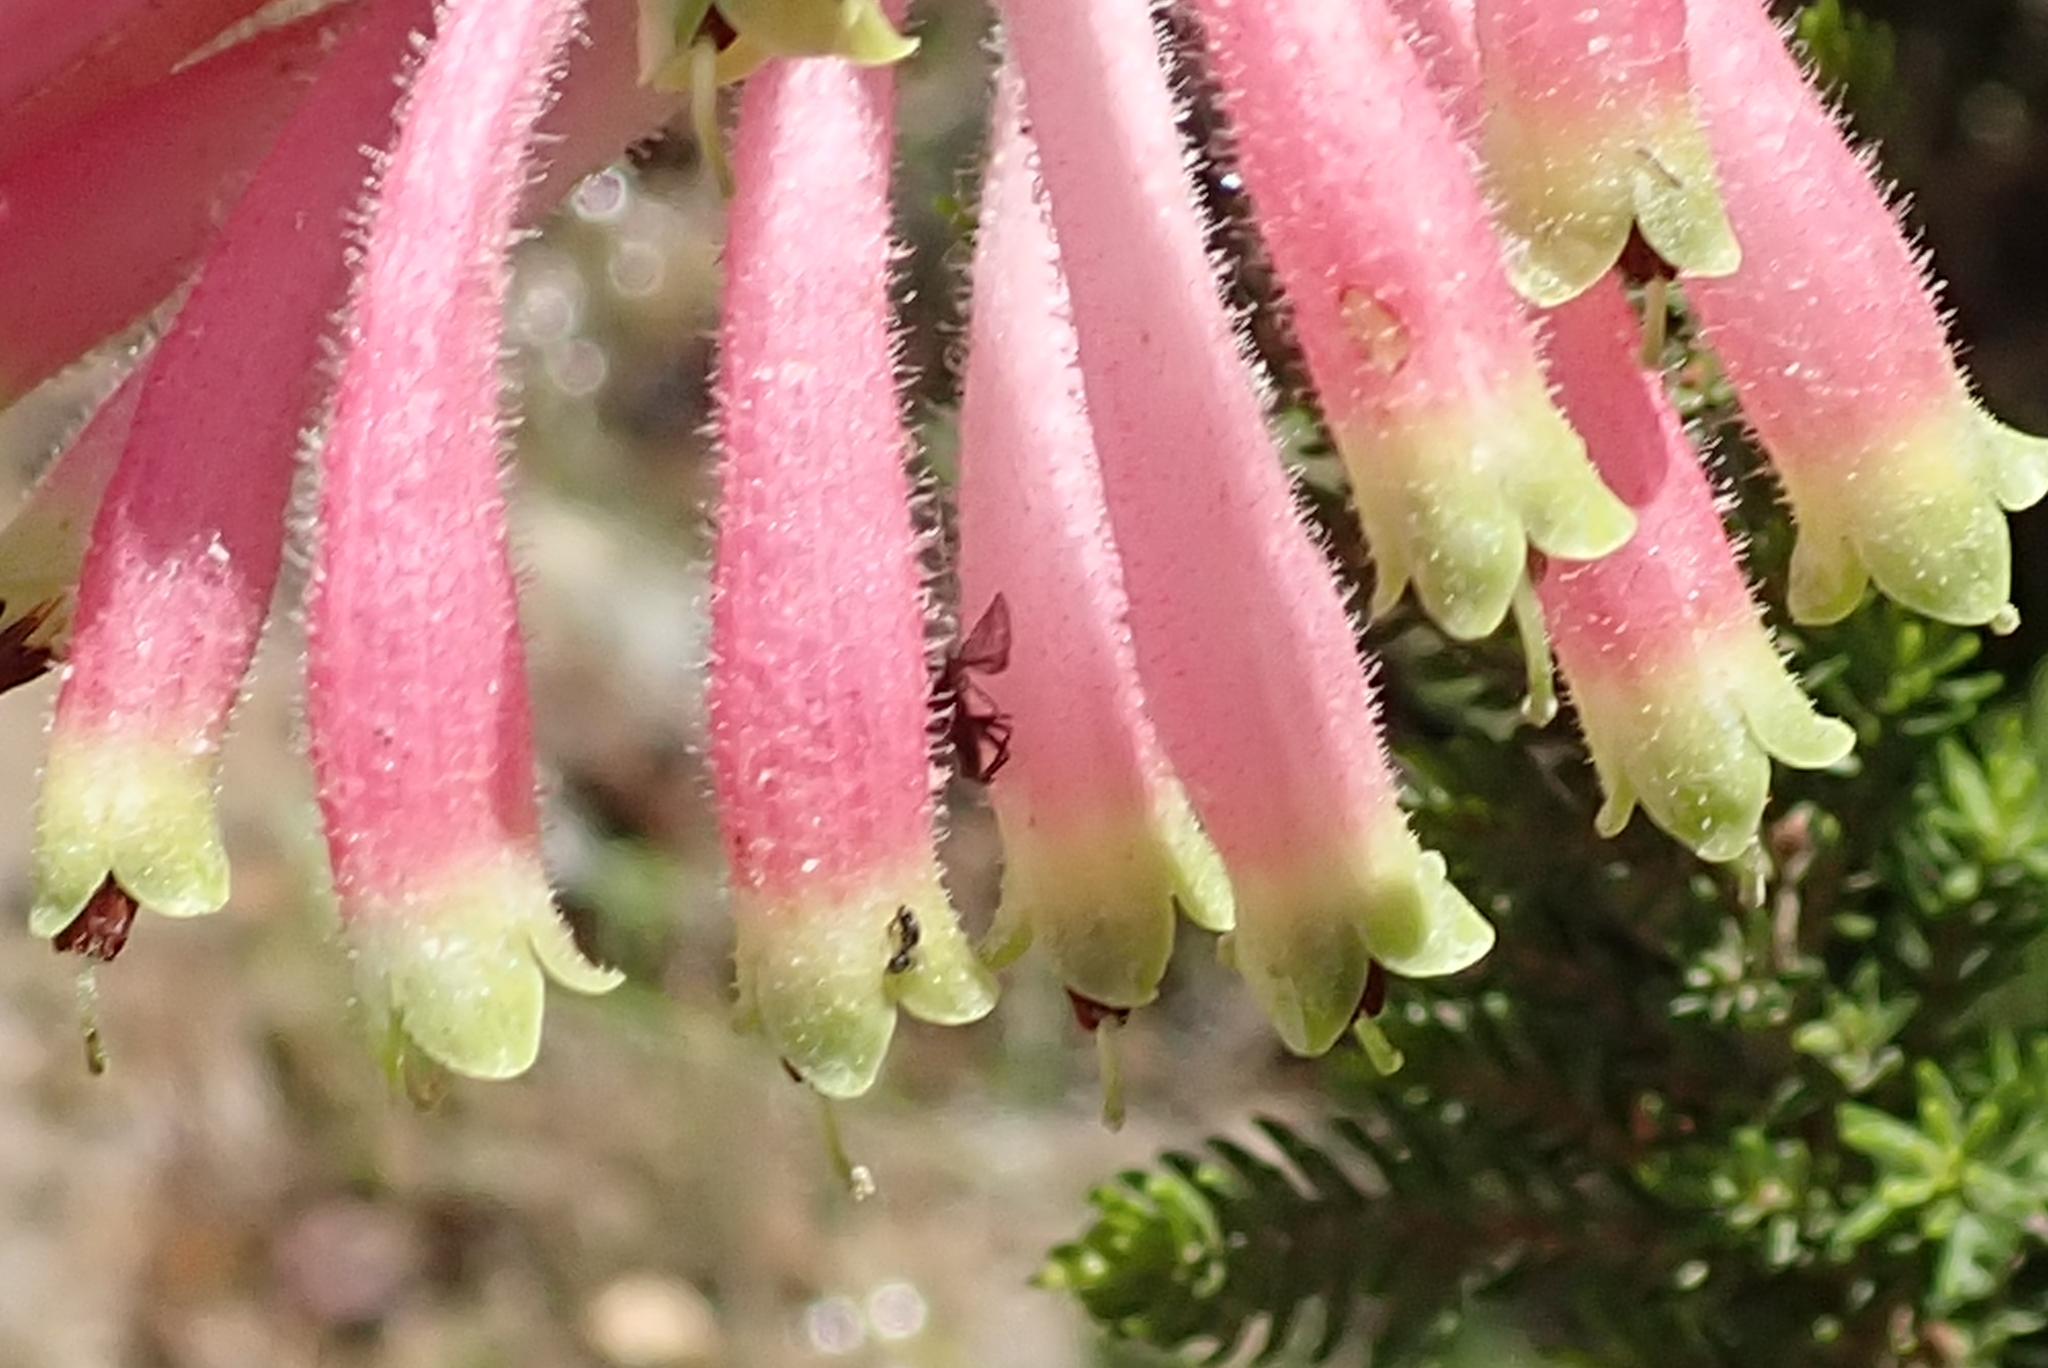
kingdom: Plantae
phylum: Tracheophyta
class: Magnoliopsida
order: Ericales
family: Ericaceae
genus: Erica
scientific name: Erica densifolia
